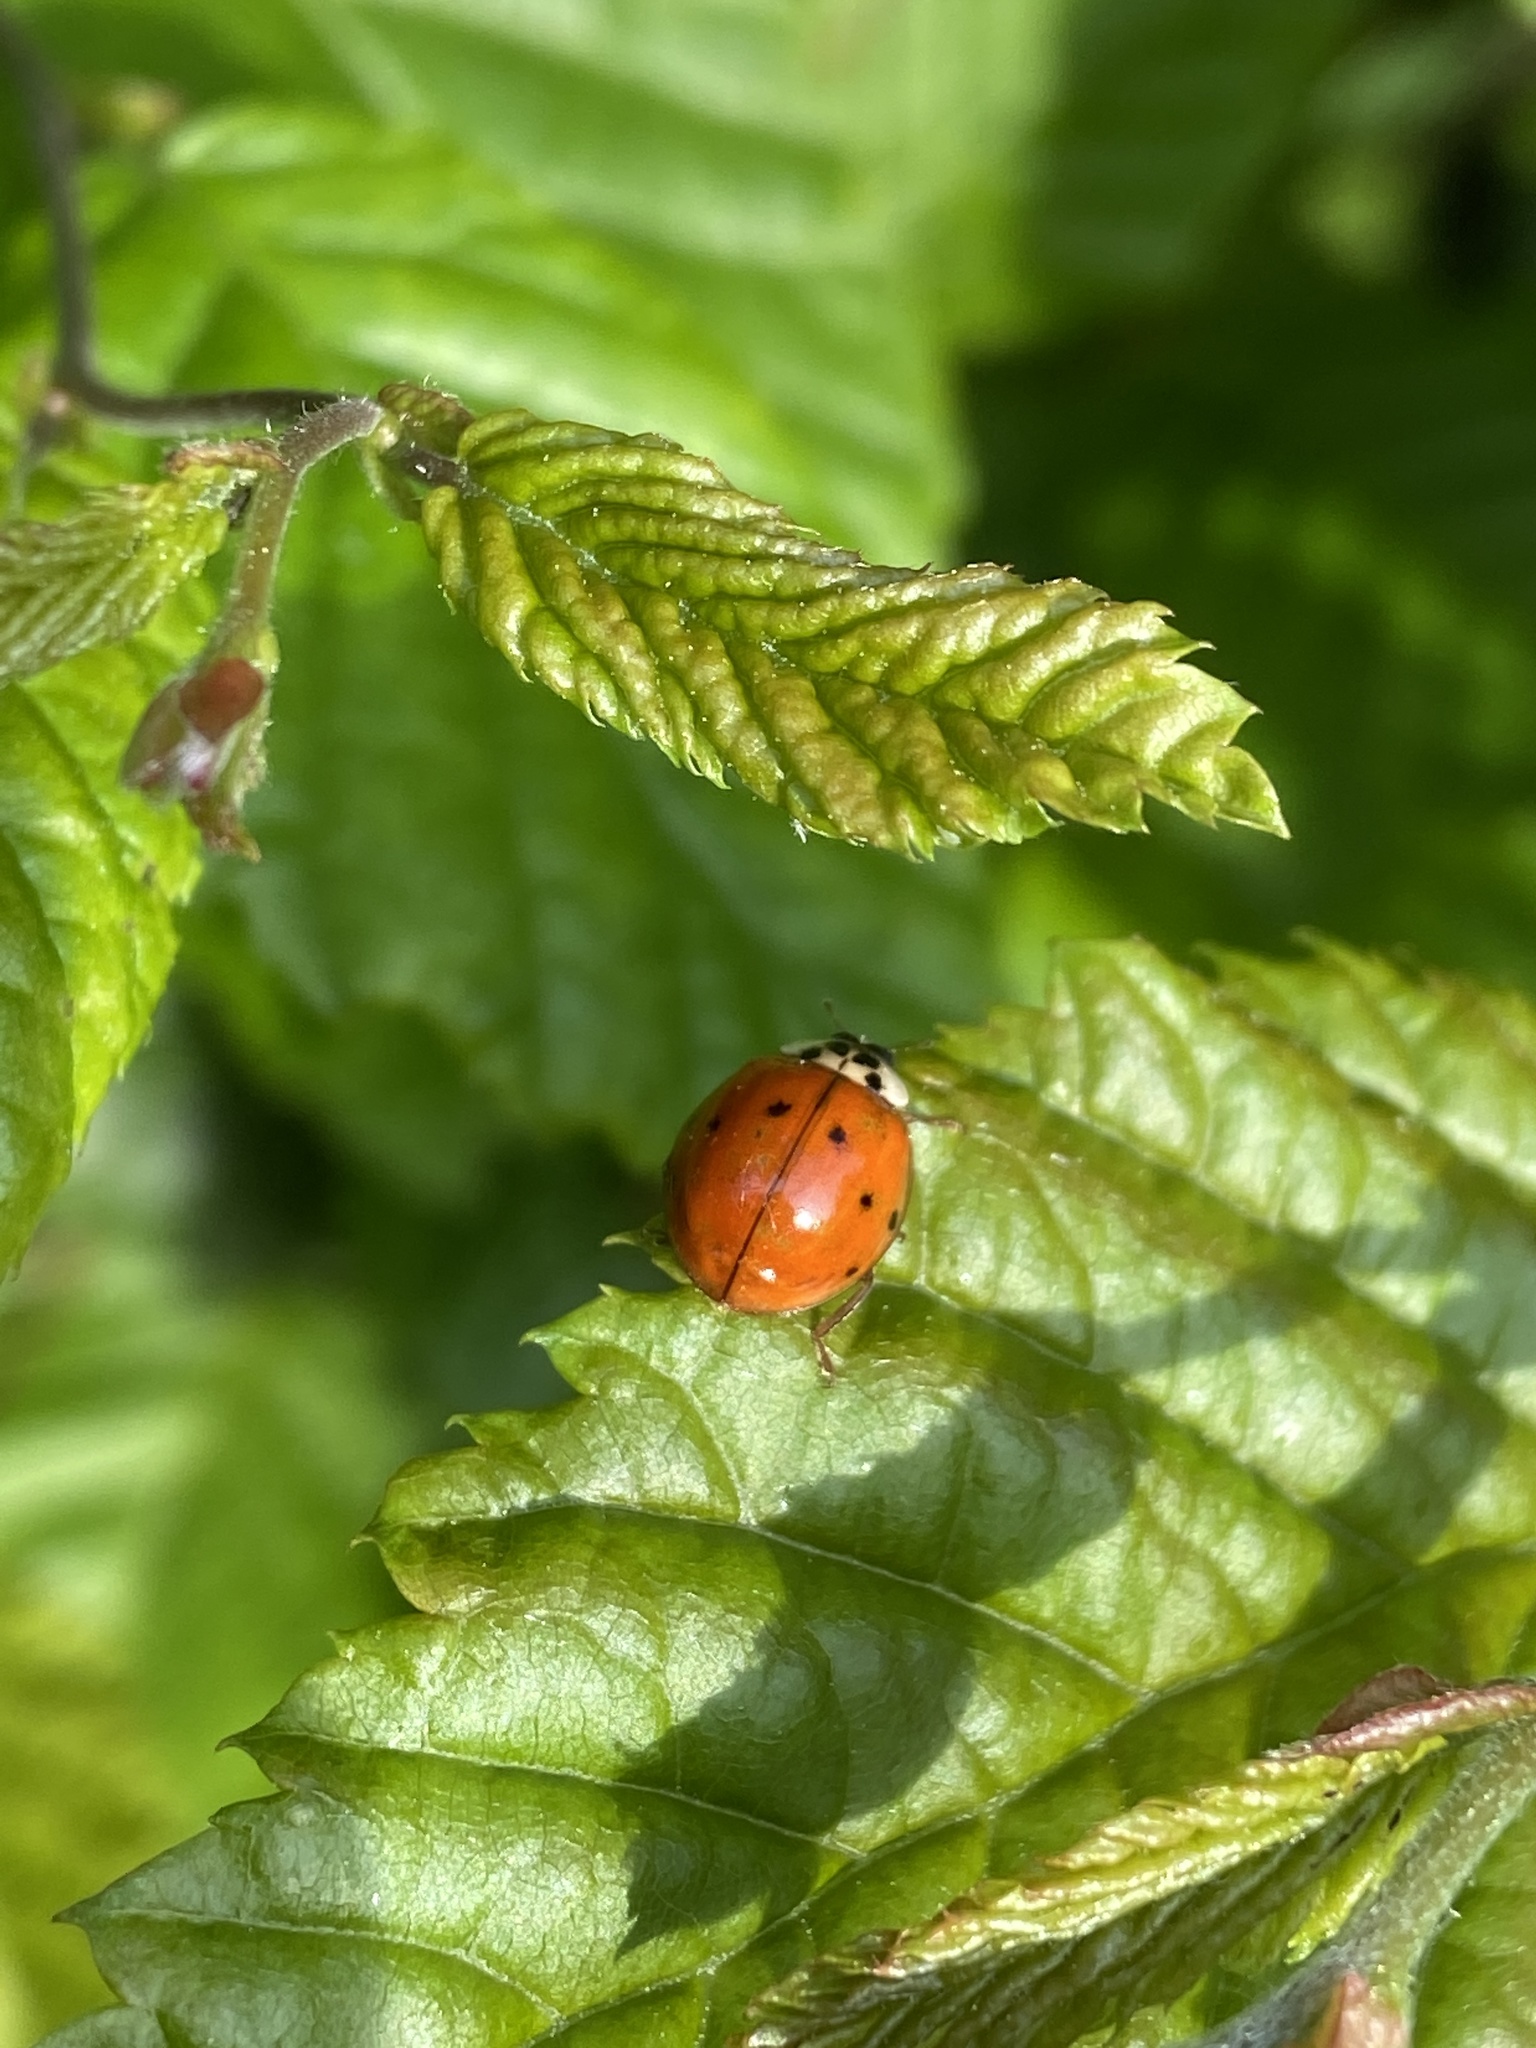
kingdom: Animalia
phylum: Arthropoda
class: Insecta
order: Coleoptera
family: Coccinellidae
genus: Harmonia
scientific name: Harmonia axyridis
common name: Harlequin ladybird
